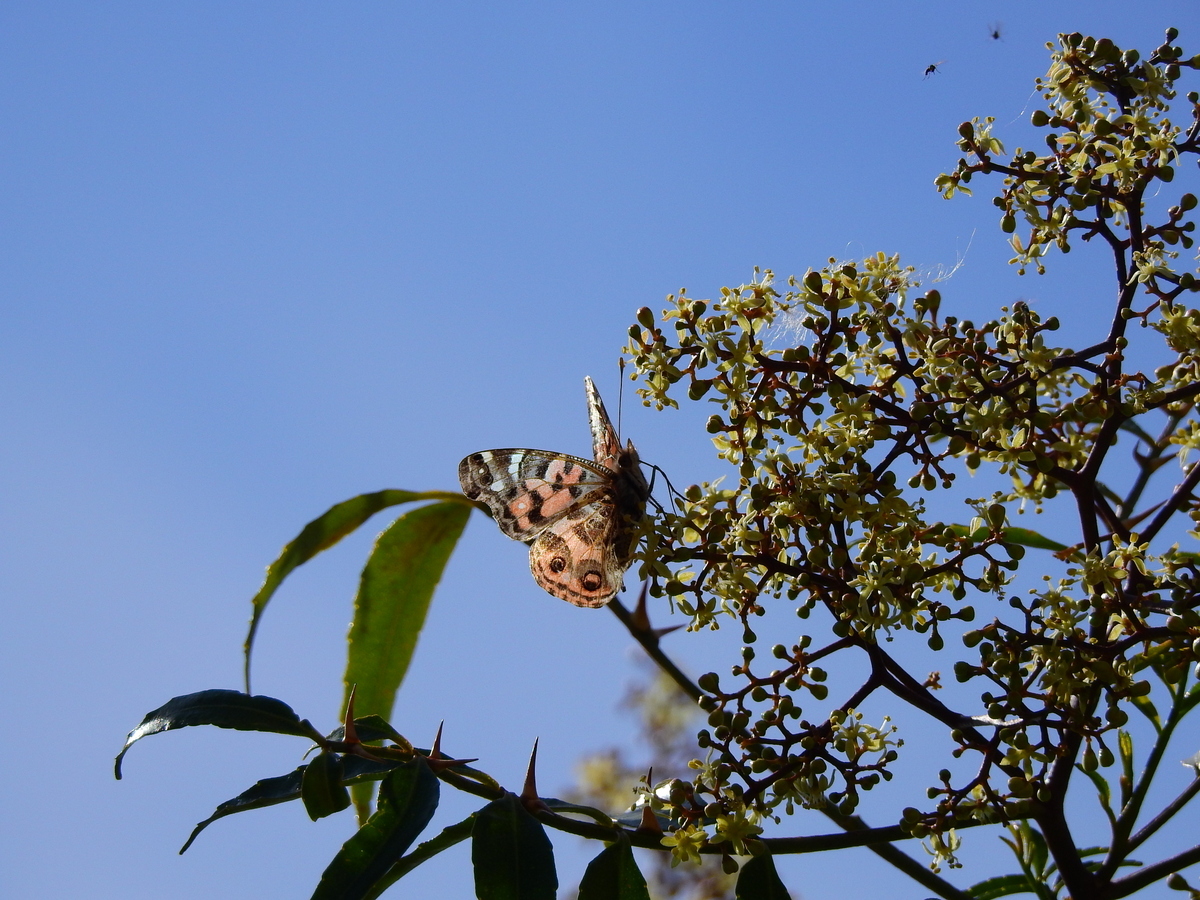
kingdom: Animalia
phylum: Arthropoda
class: Insecta
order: Lepidoptera
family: Nymphalidae
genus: Vanessa
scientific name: Vanessa braziliensis
